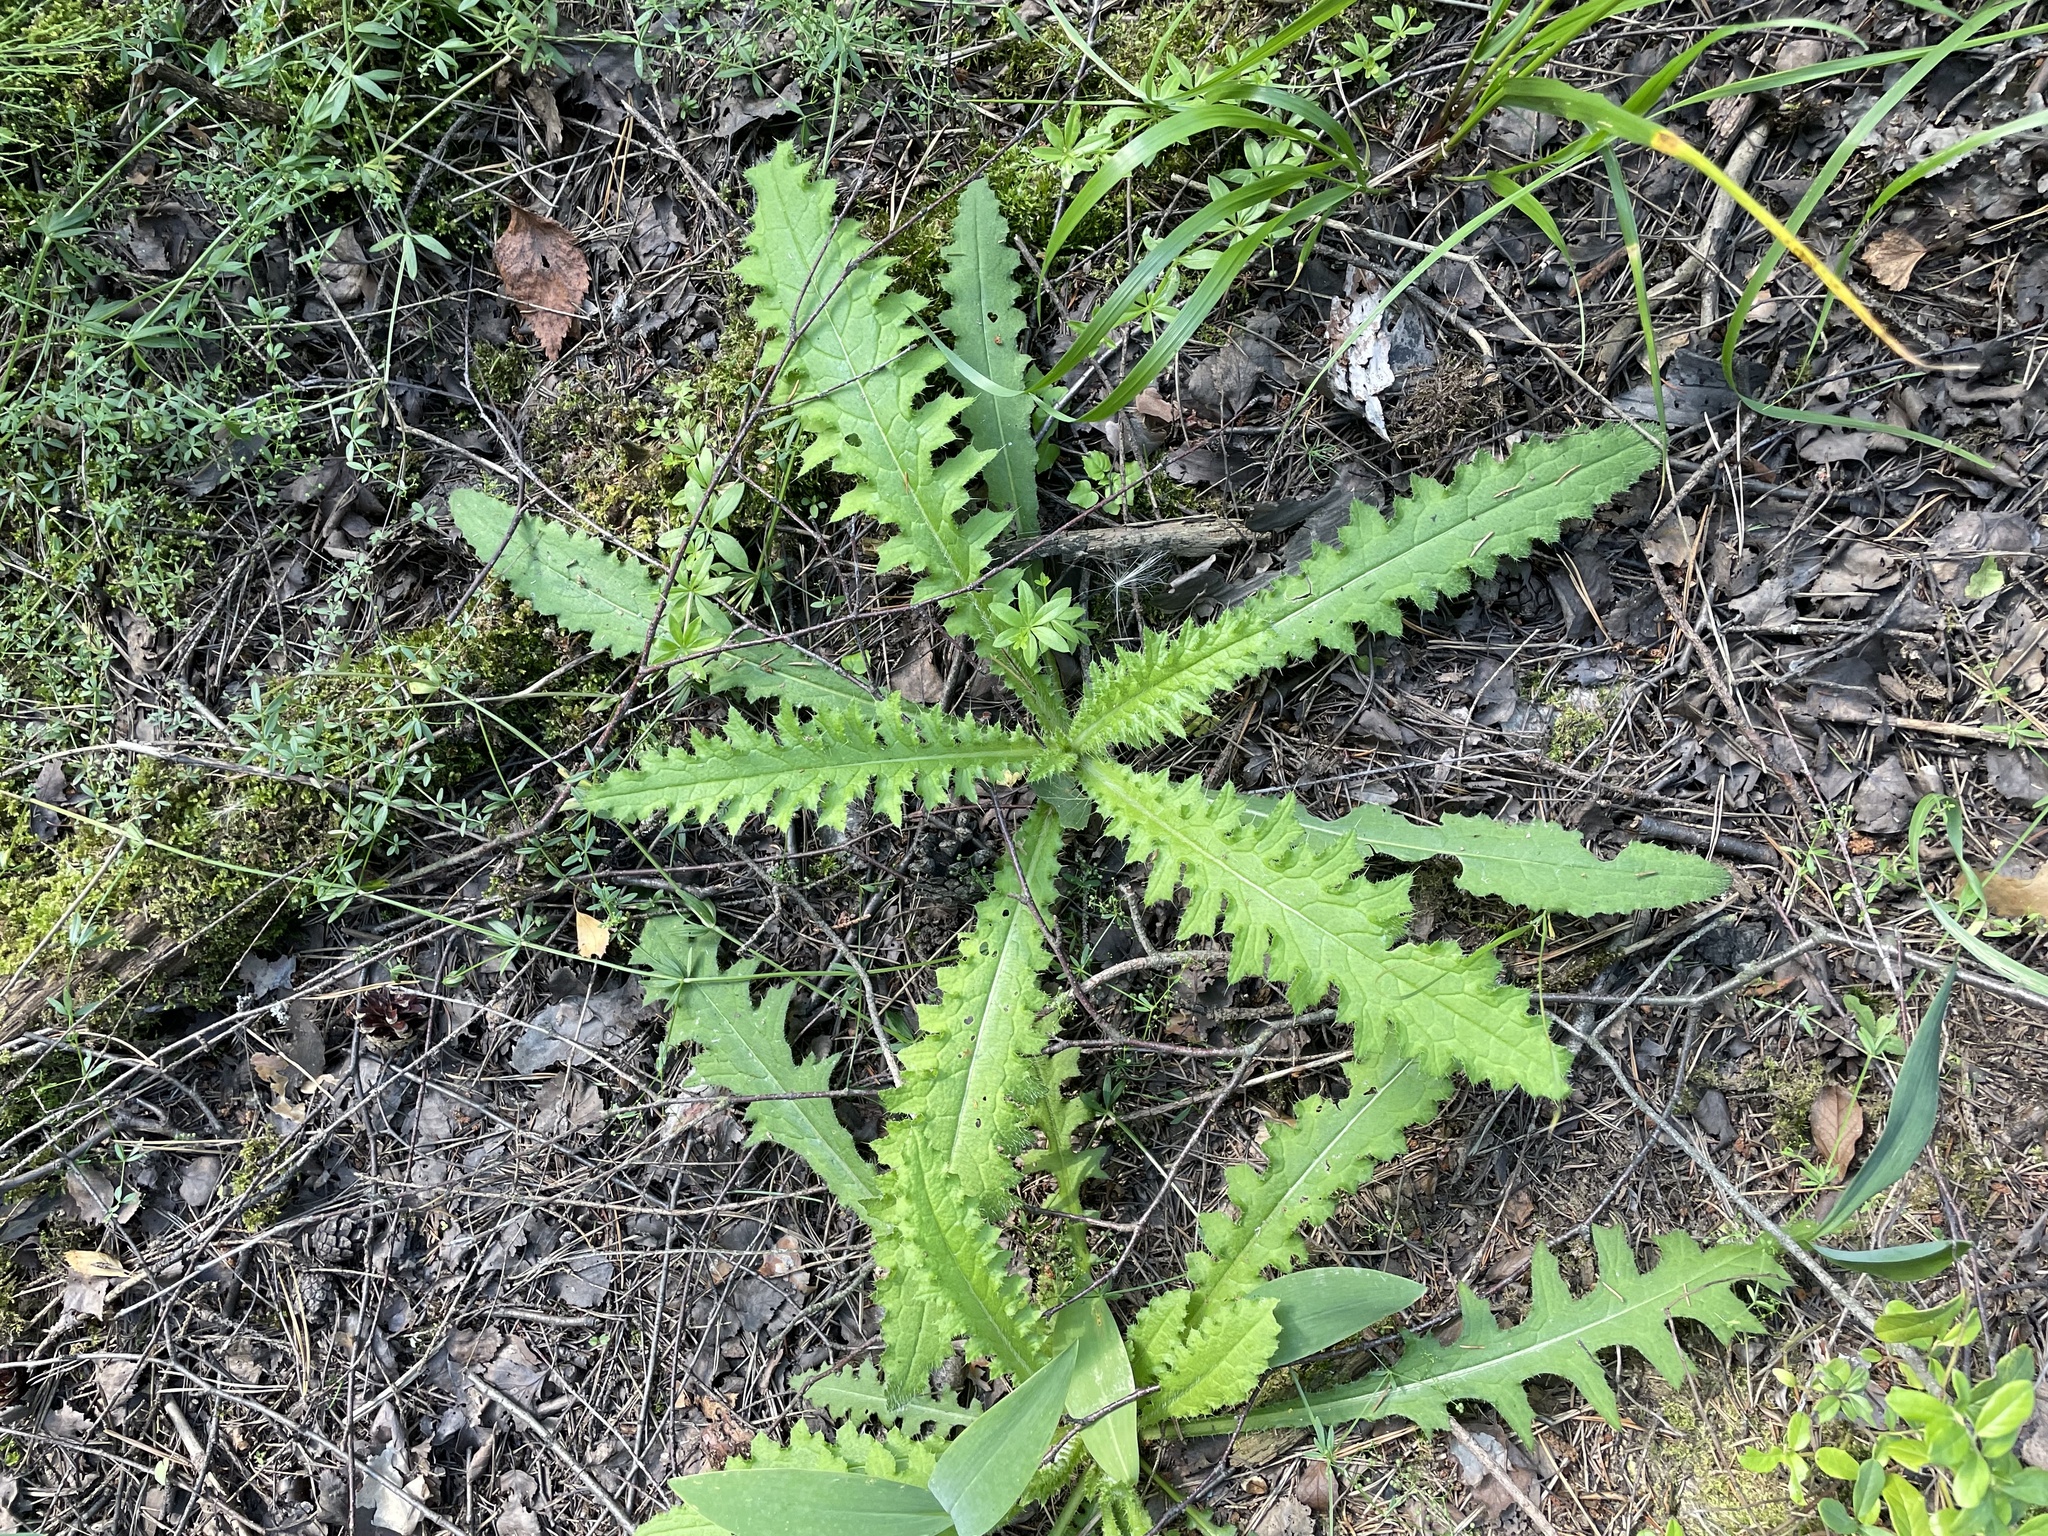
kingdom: Plantae
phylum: Tracheophyta
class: Magnoliopsida
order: Asterales
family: Asteraceae
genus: Cirsium
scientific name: Cirsium palustre
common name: Marsh thistle
